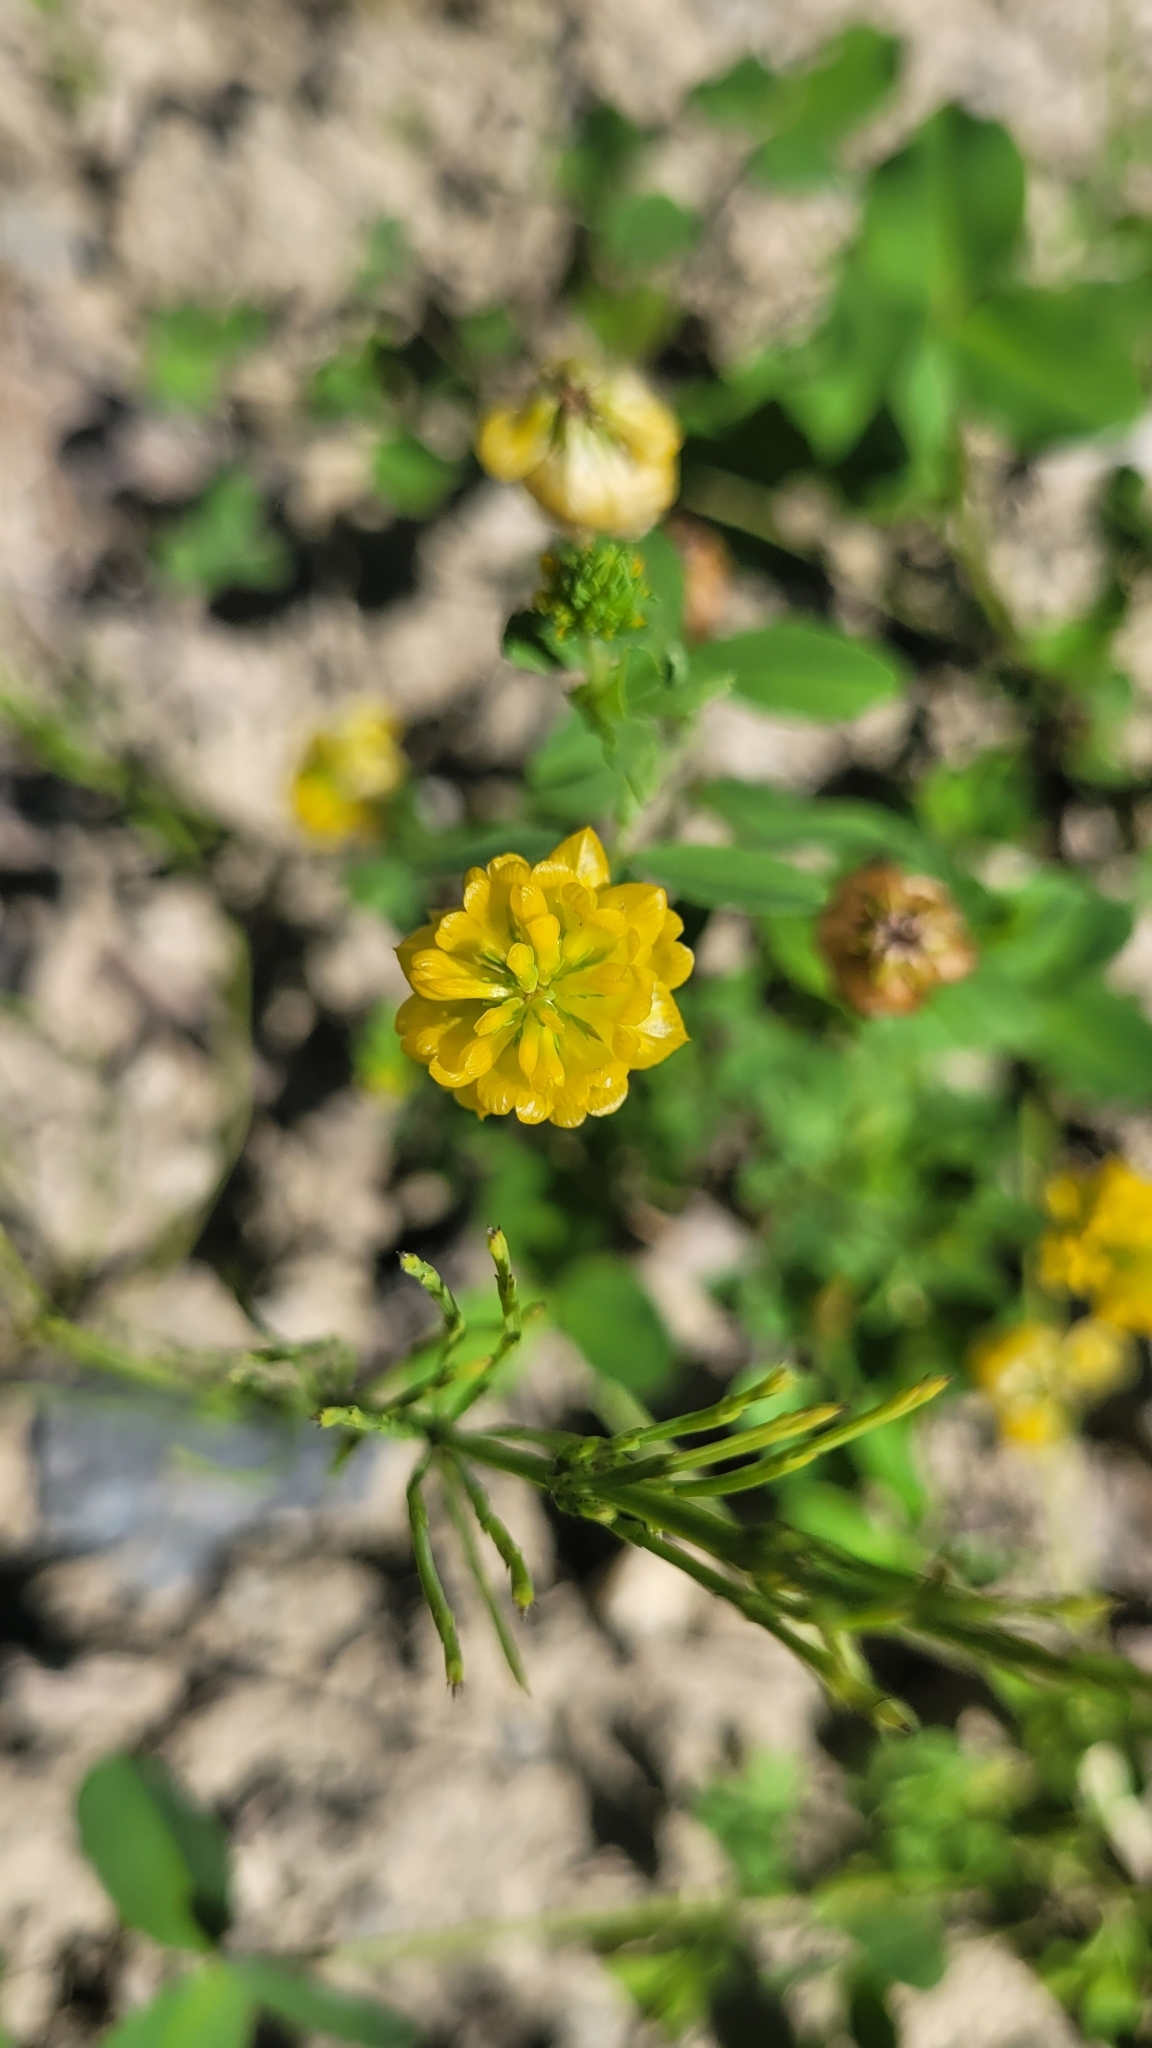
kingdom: Plantae
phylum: Tracheophyta
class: Magnoliopsida
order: Fabales
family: Fabaceae
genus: Trifolium
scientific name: Trifolium aureum
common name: Golden clover
